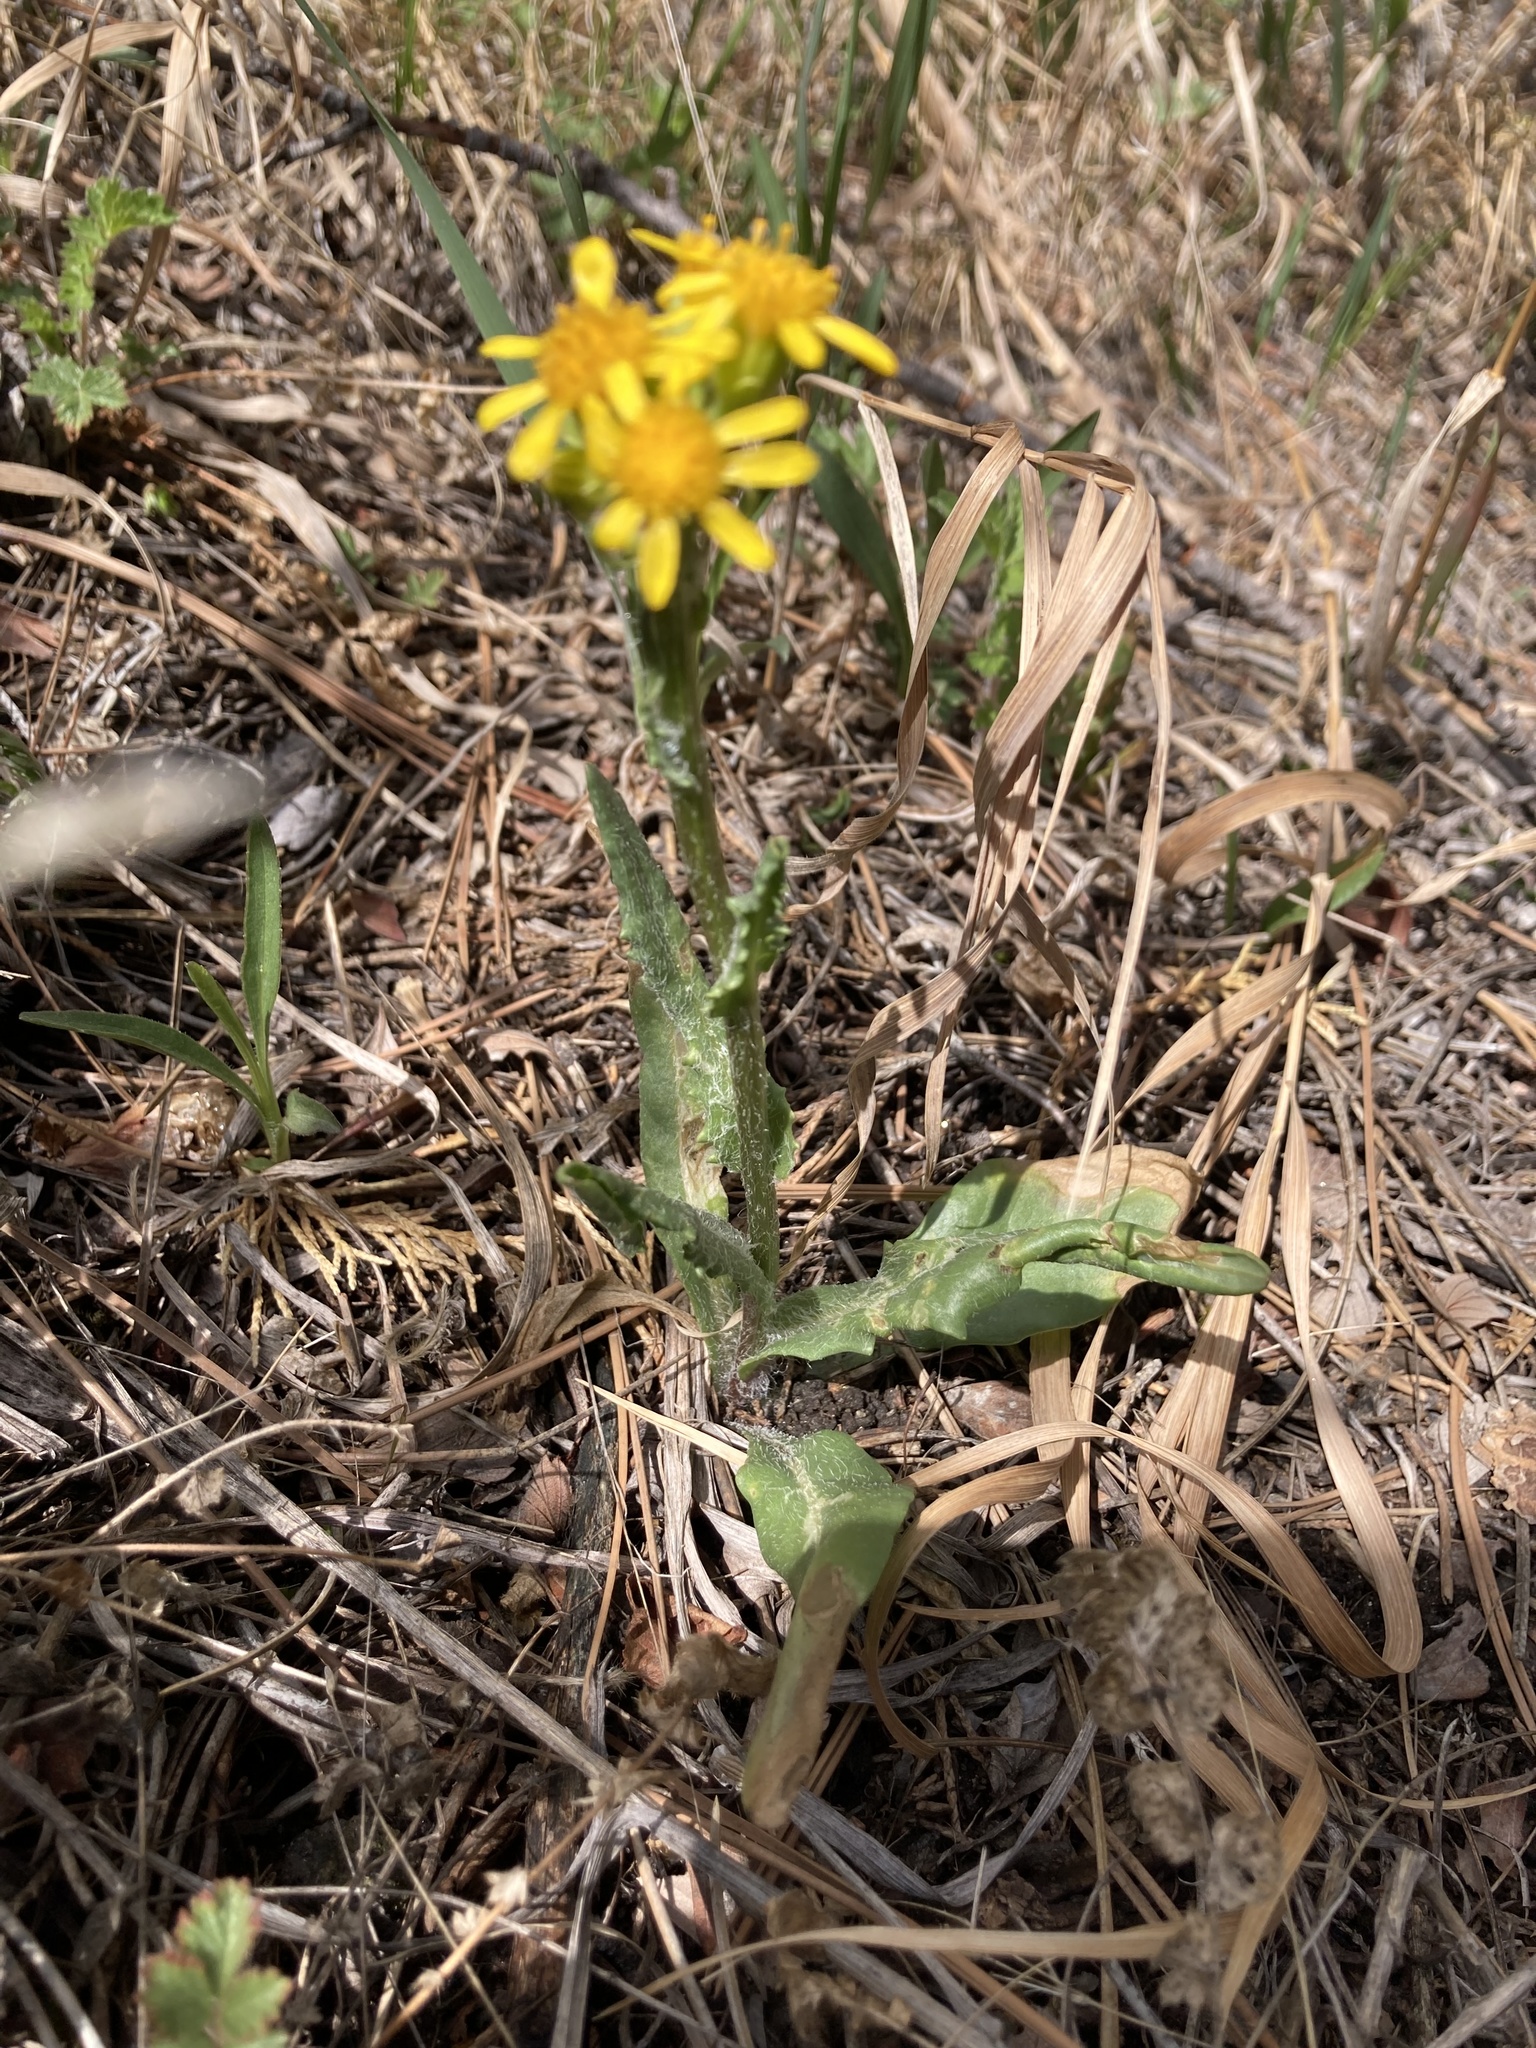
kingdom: Plantae
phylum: Tracheophyta
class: Magnoliopsida
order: Asterales
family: Asteraceae
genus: Senecio
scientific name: Senecio integerrimus
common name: Gaugeplant
